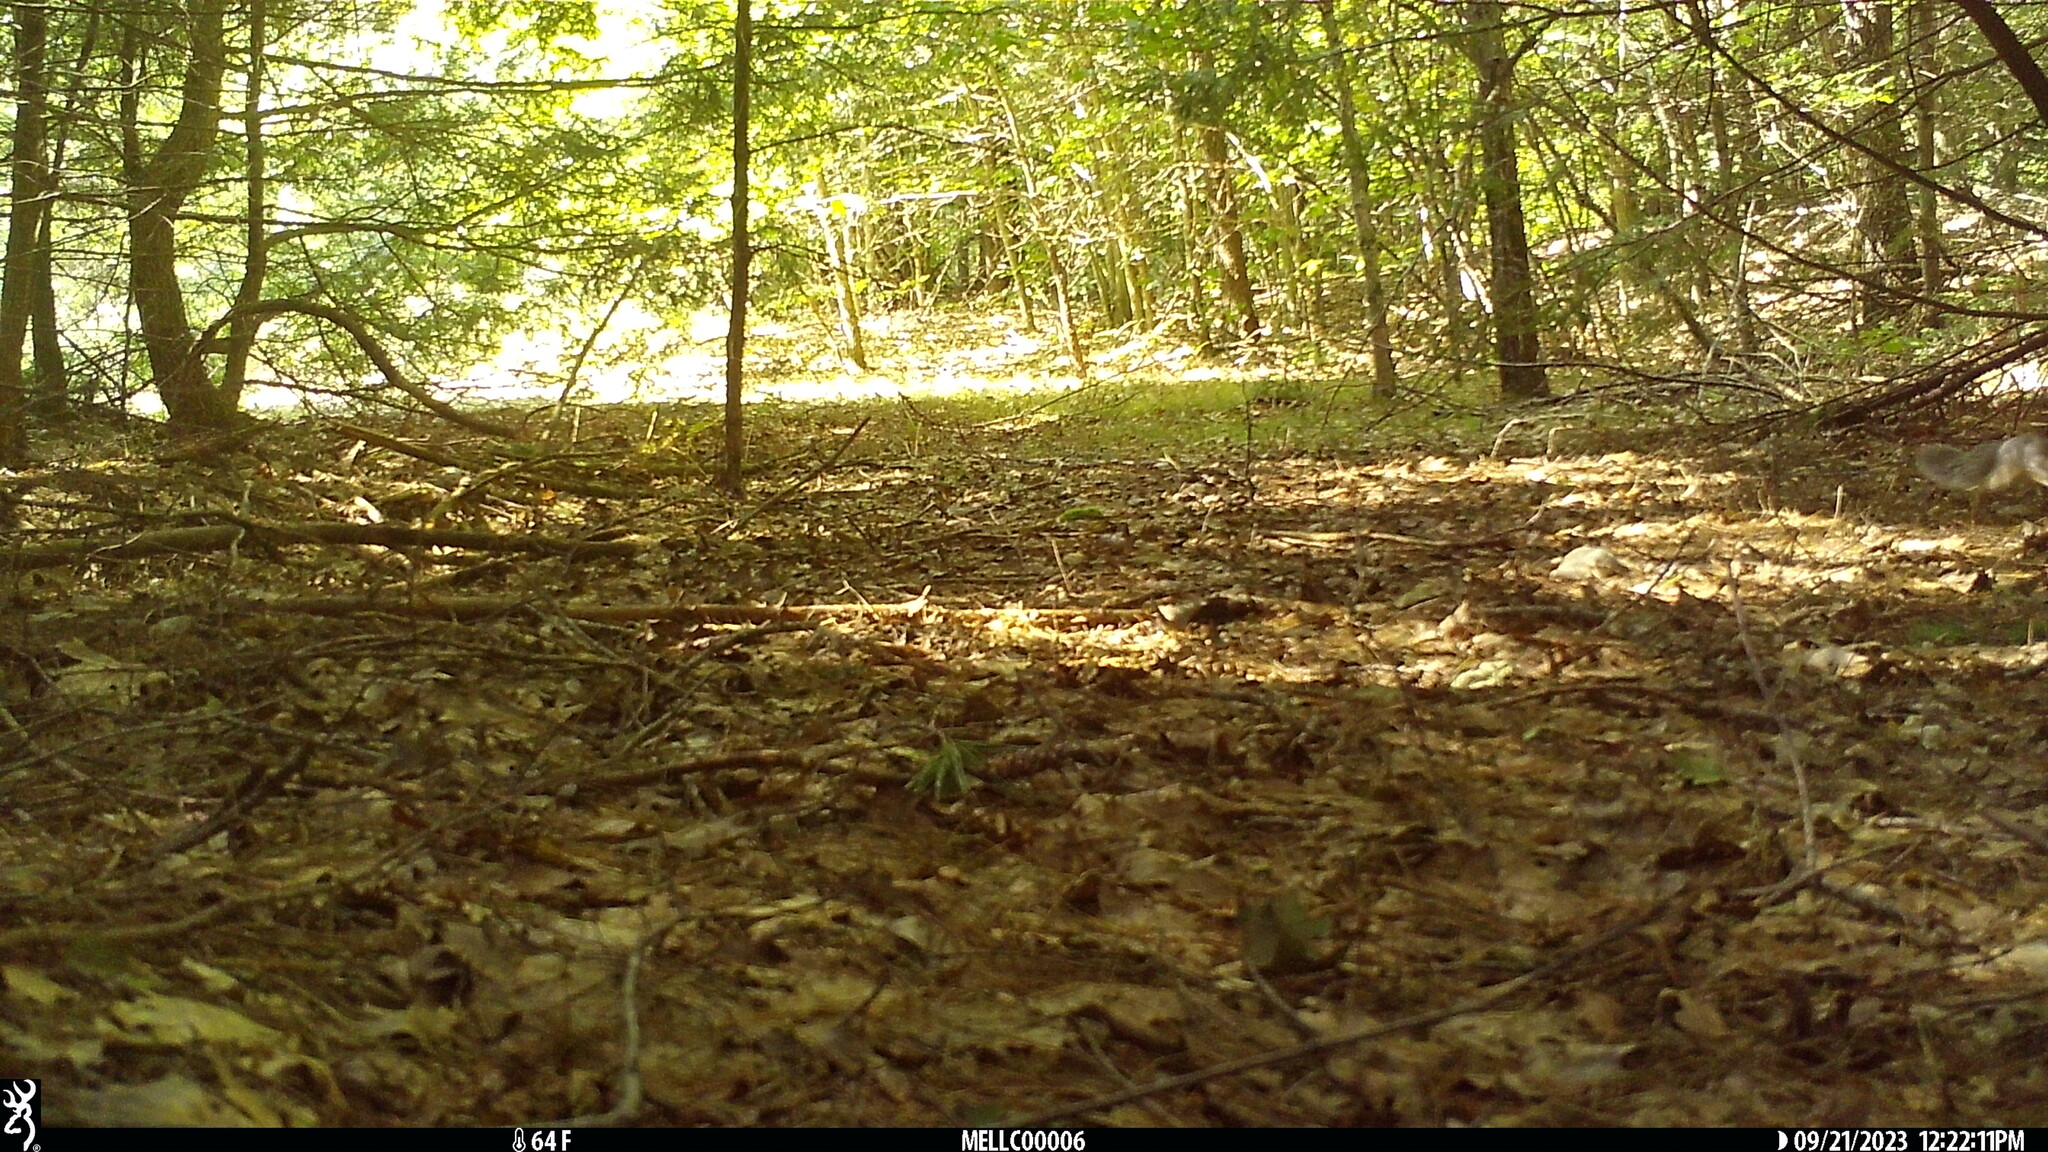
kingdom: Animalia
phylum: Chordata
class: Mammalia
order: Rodentia
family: Sciuridae
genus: Sciurus
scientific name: Sciurus carolinensis
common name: Eastern gray squirrel
